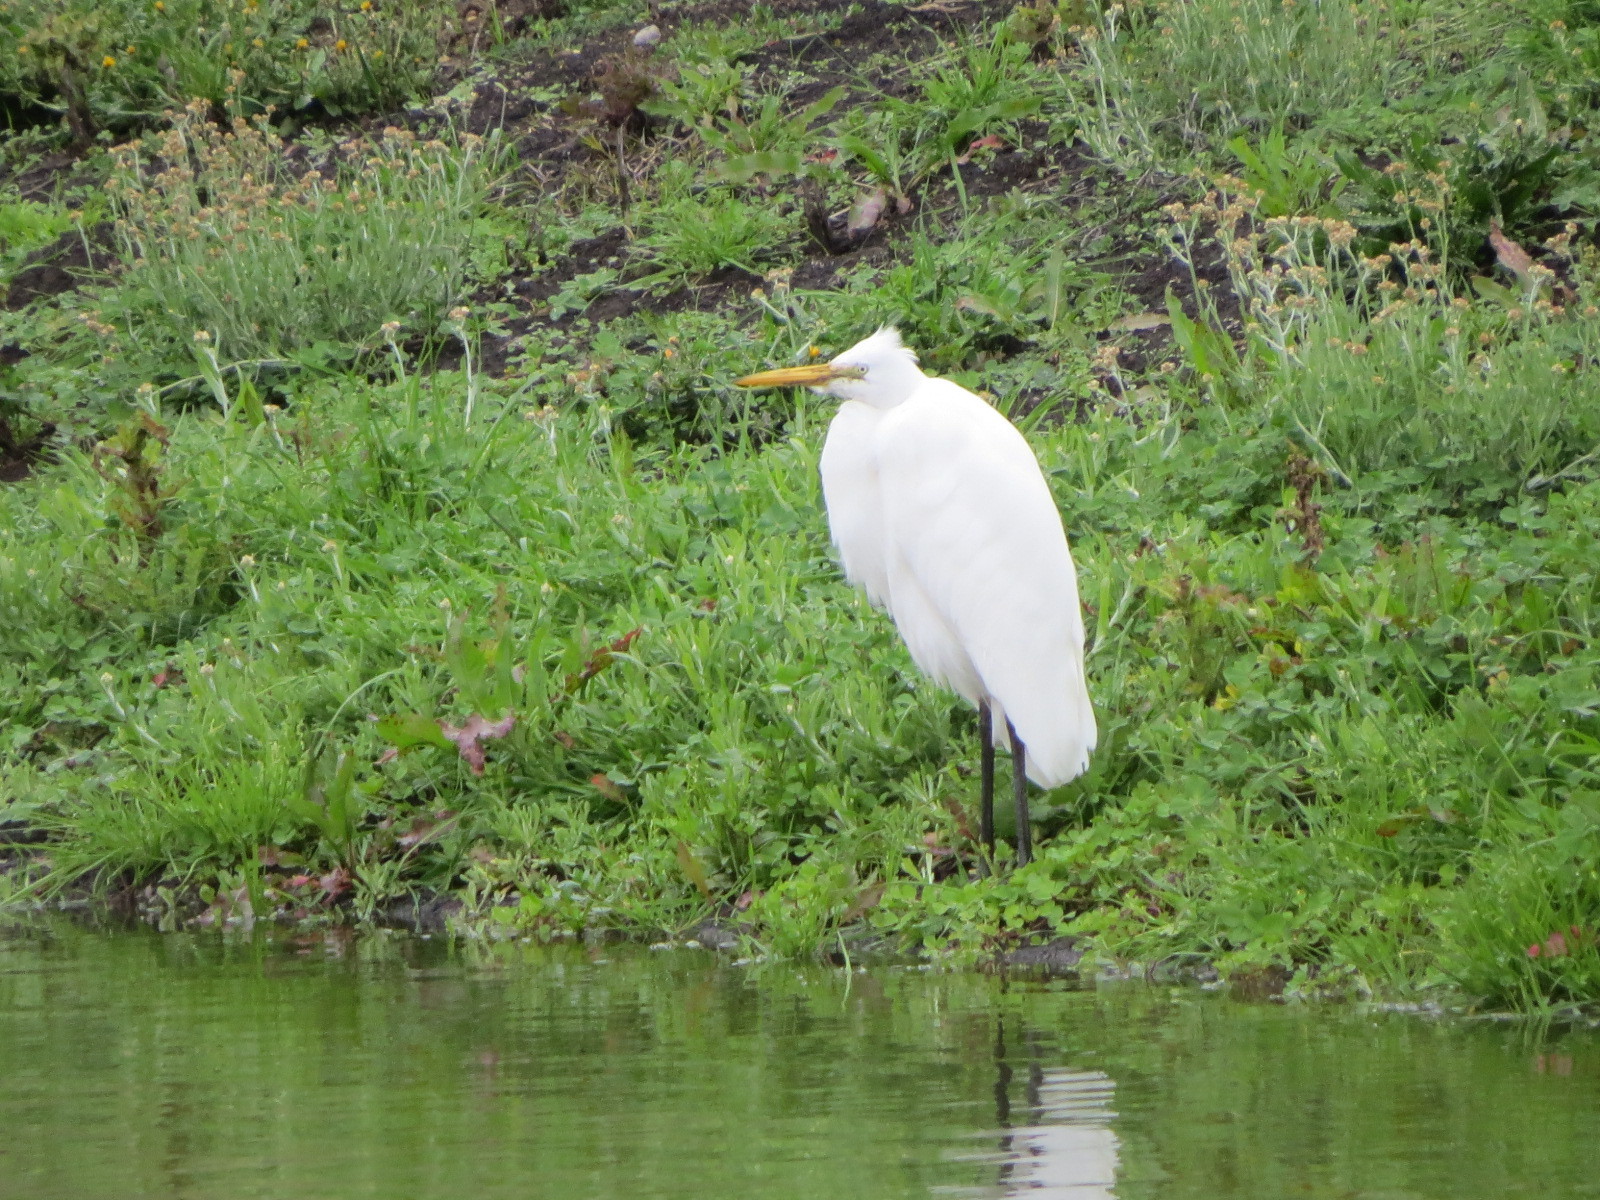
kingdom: Animalia
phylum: Chordata
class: Aves
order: Pelecaniformes
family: Ardeidae
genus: Ardea
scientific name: Ardea alba
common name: Great egret
